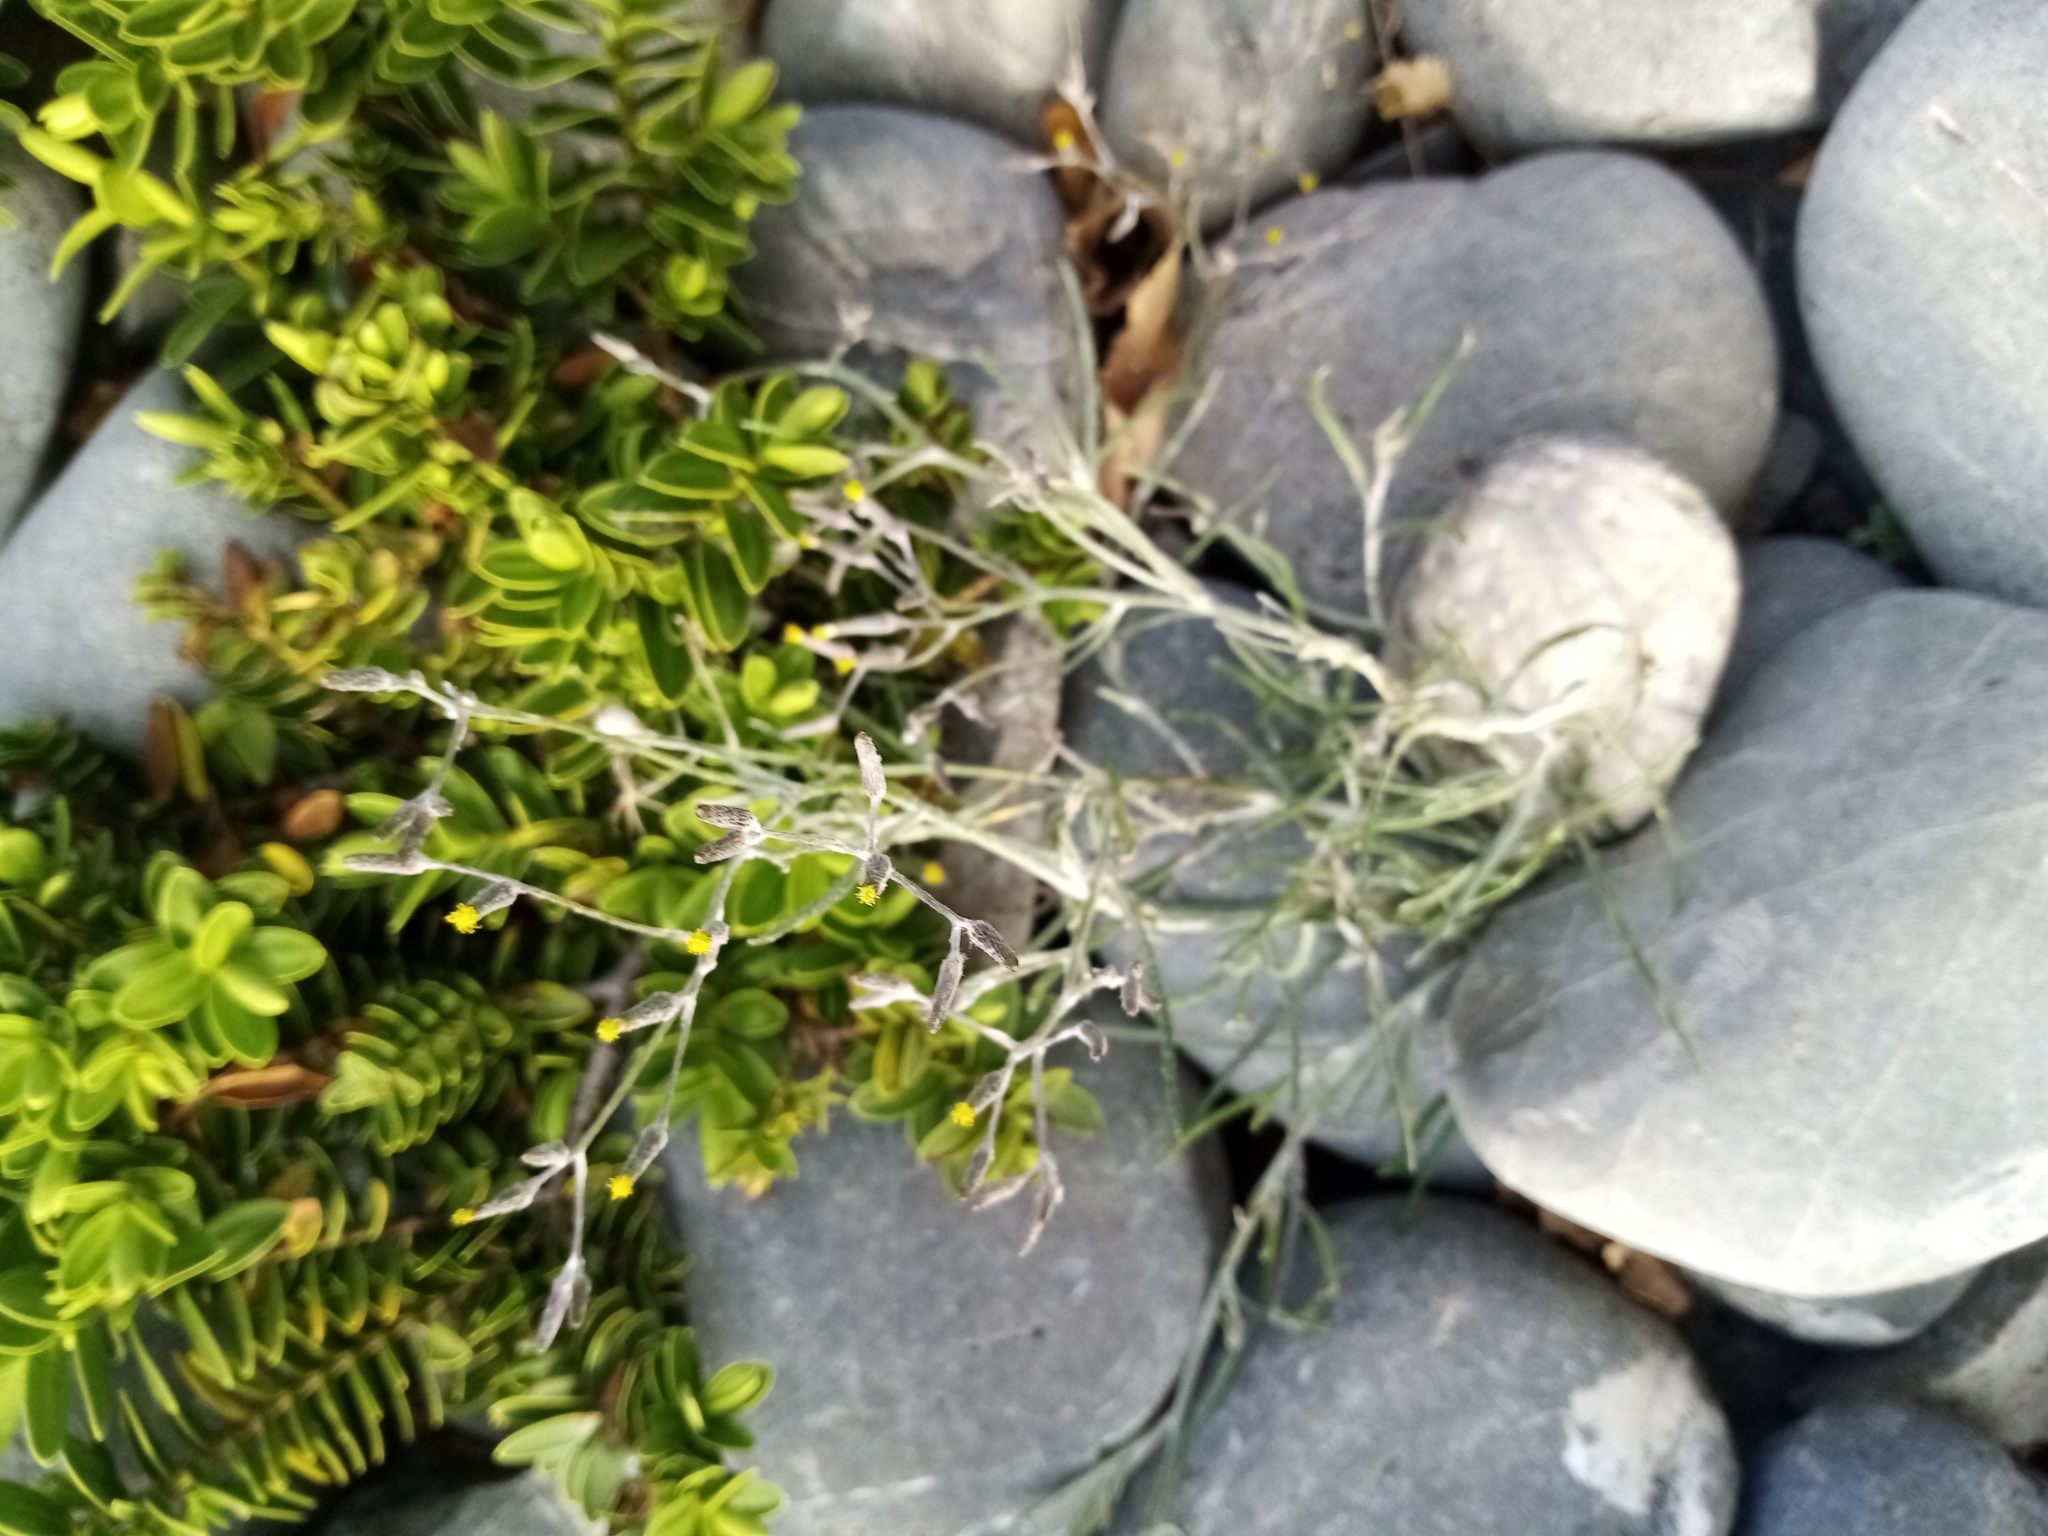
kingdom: Plantae
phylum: Tracheophyta
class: Magnoliopsida
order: Asterales
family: Asteraceae
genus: Senecio
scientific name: Senecio quadridentatus
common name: Cotton fireweed
